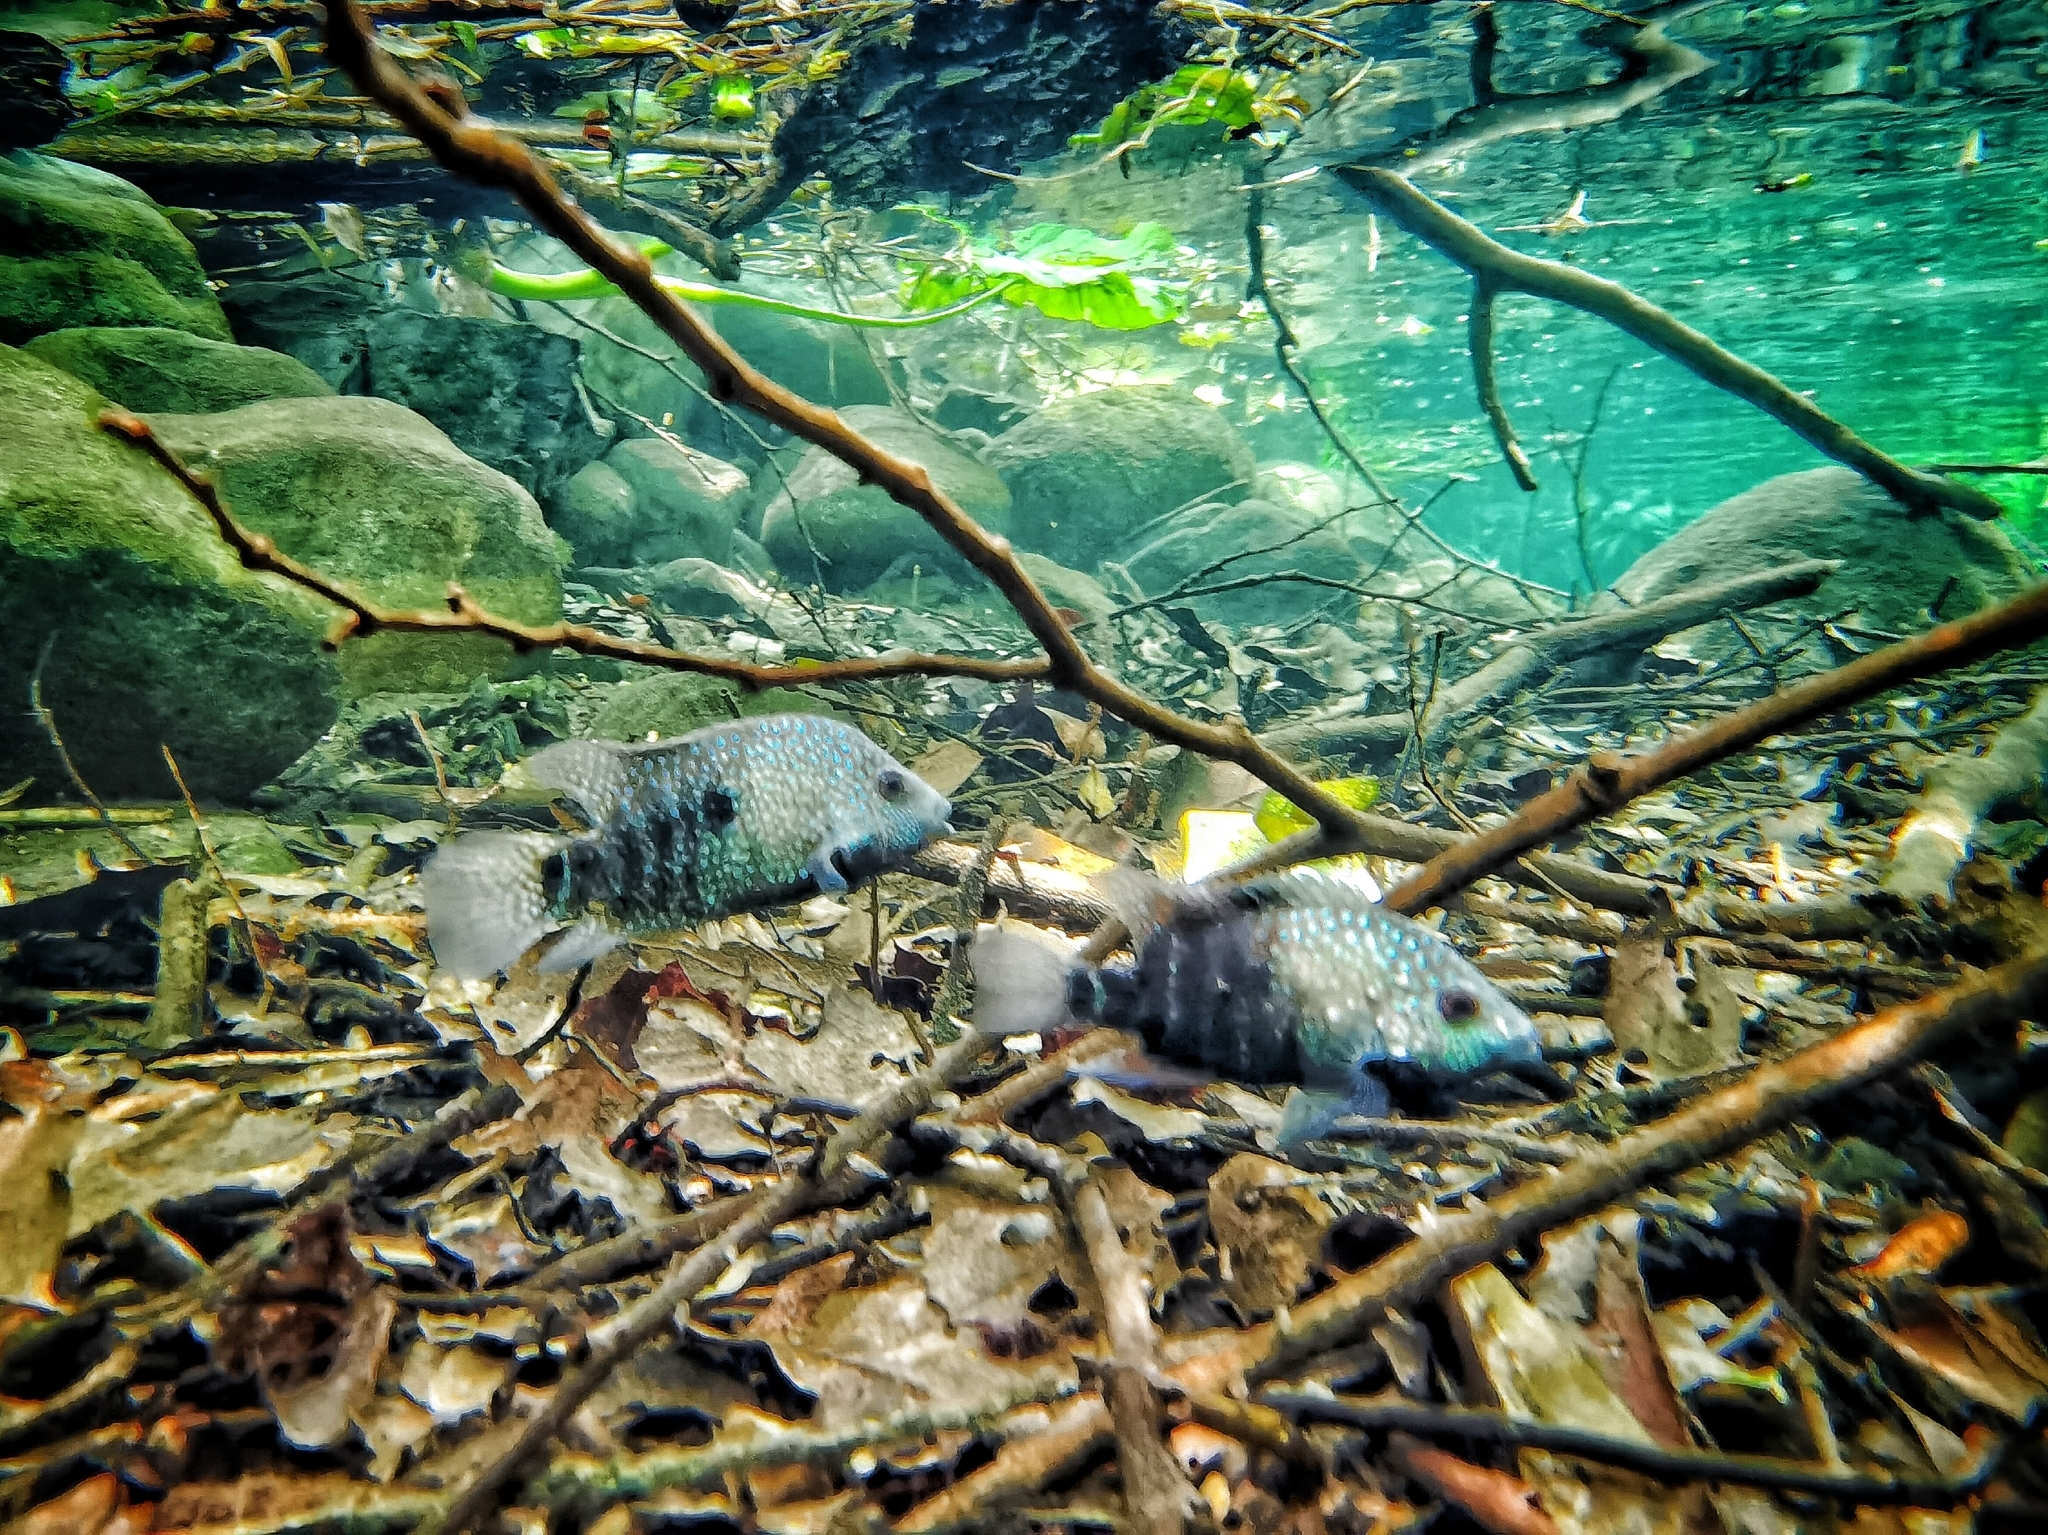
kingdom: Animalia
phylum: Chordata
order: Perciformes
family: Cichlidae
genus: Herichthys
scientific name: Herichthys carpintis
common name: Lowland cichlid
